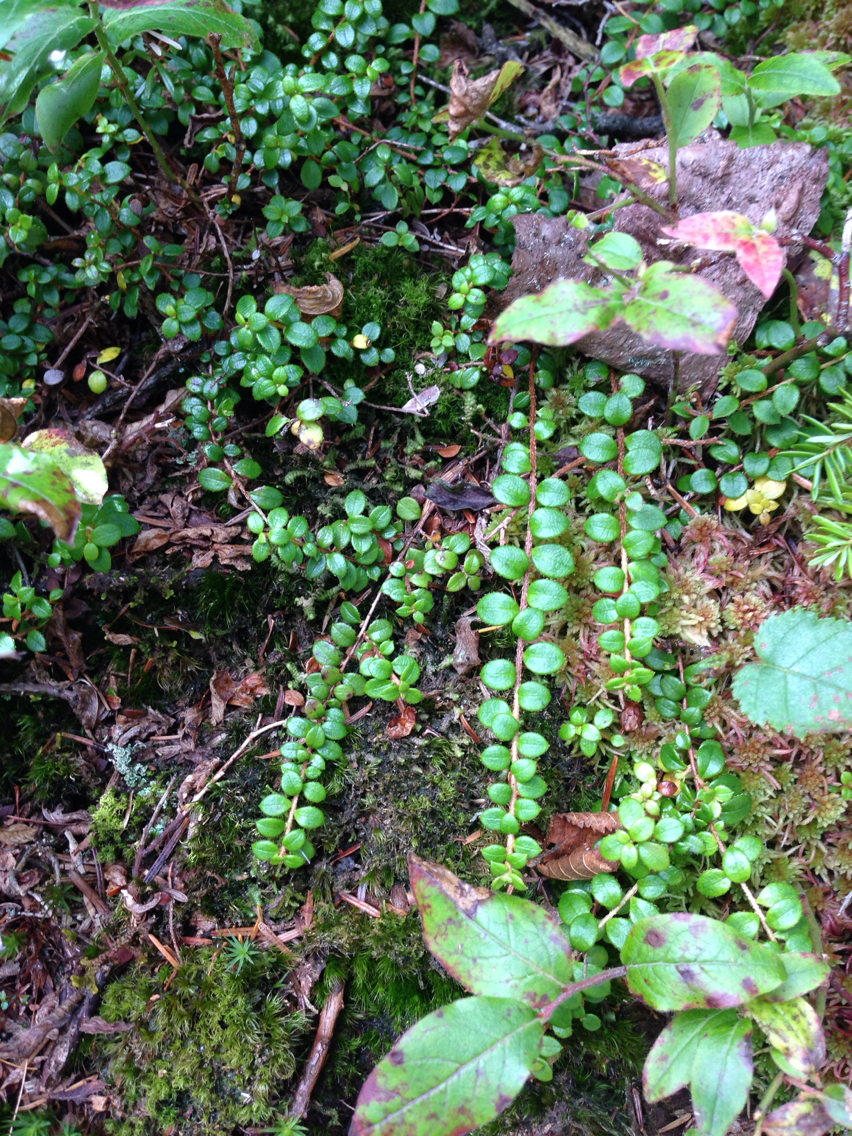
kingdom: Plantae
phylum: Tracheophyta
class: Magnoliopsida
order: Ericales
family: Ericaceae
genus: Gaultheria
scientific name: Gaultheria hispidula
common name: Cancer wintergreen
